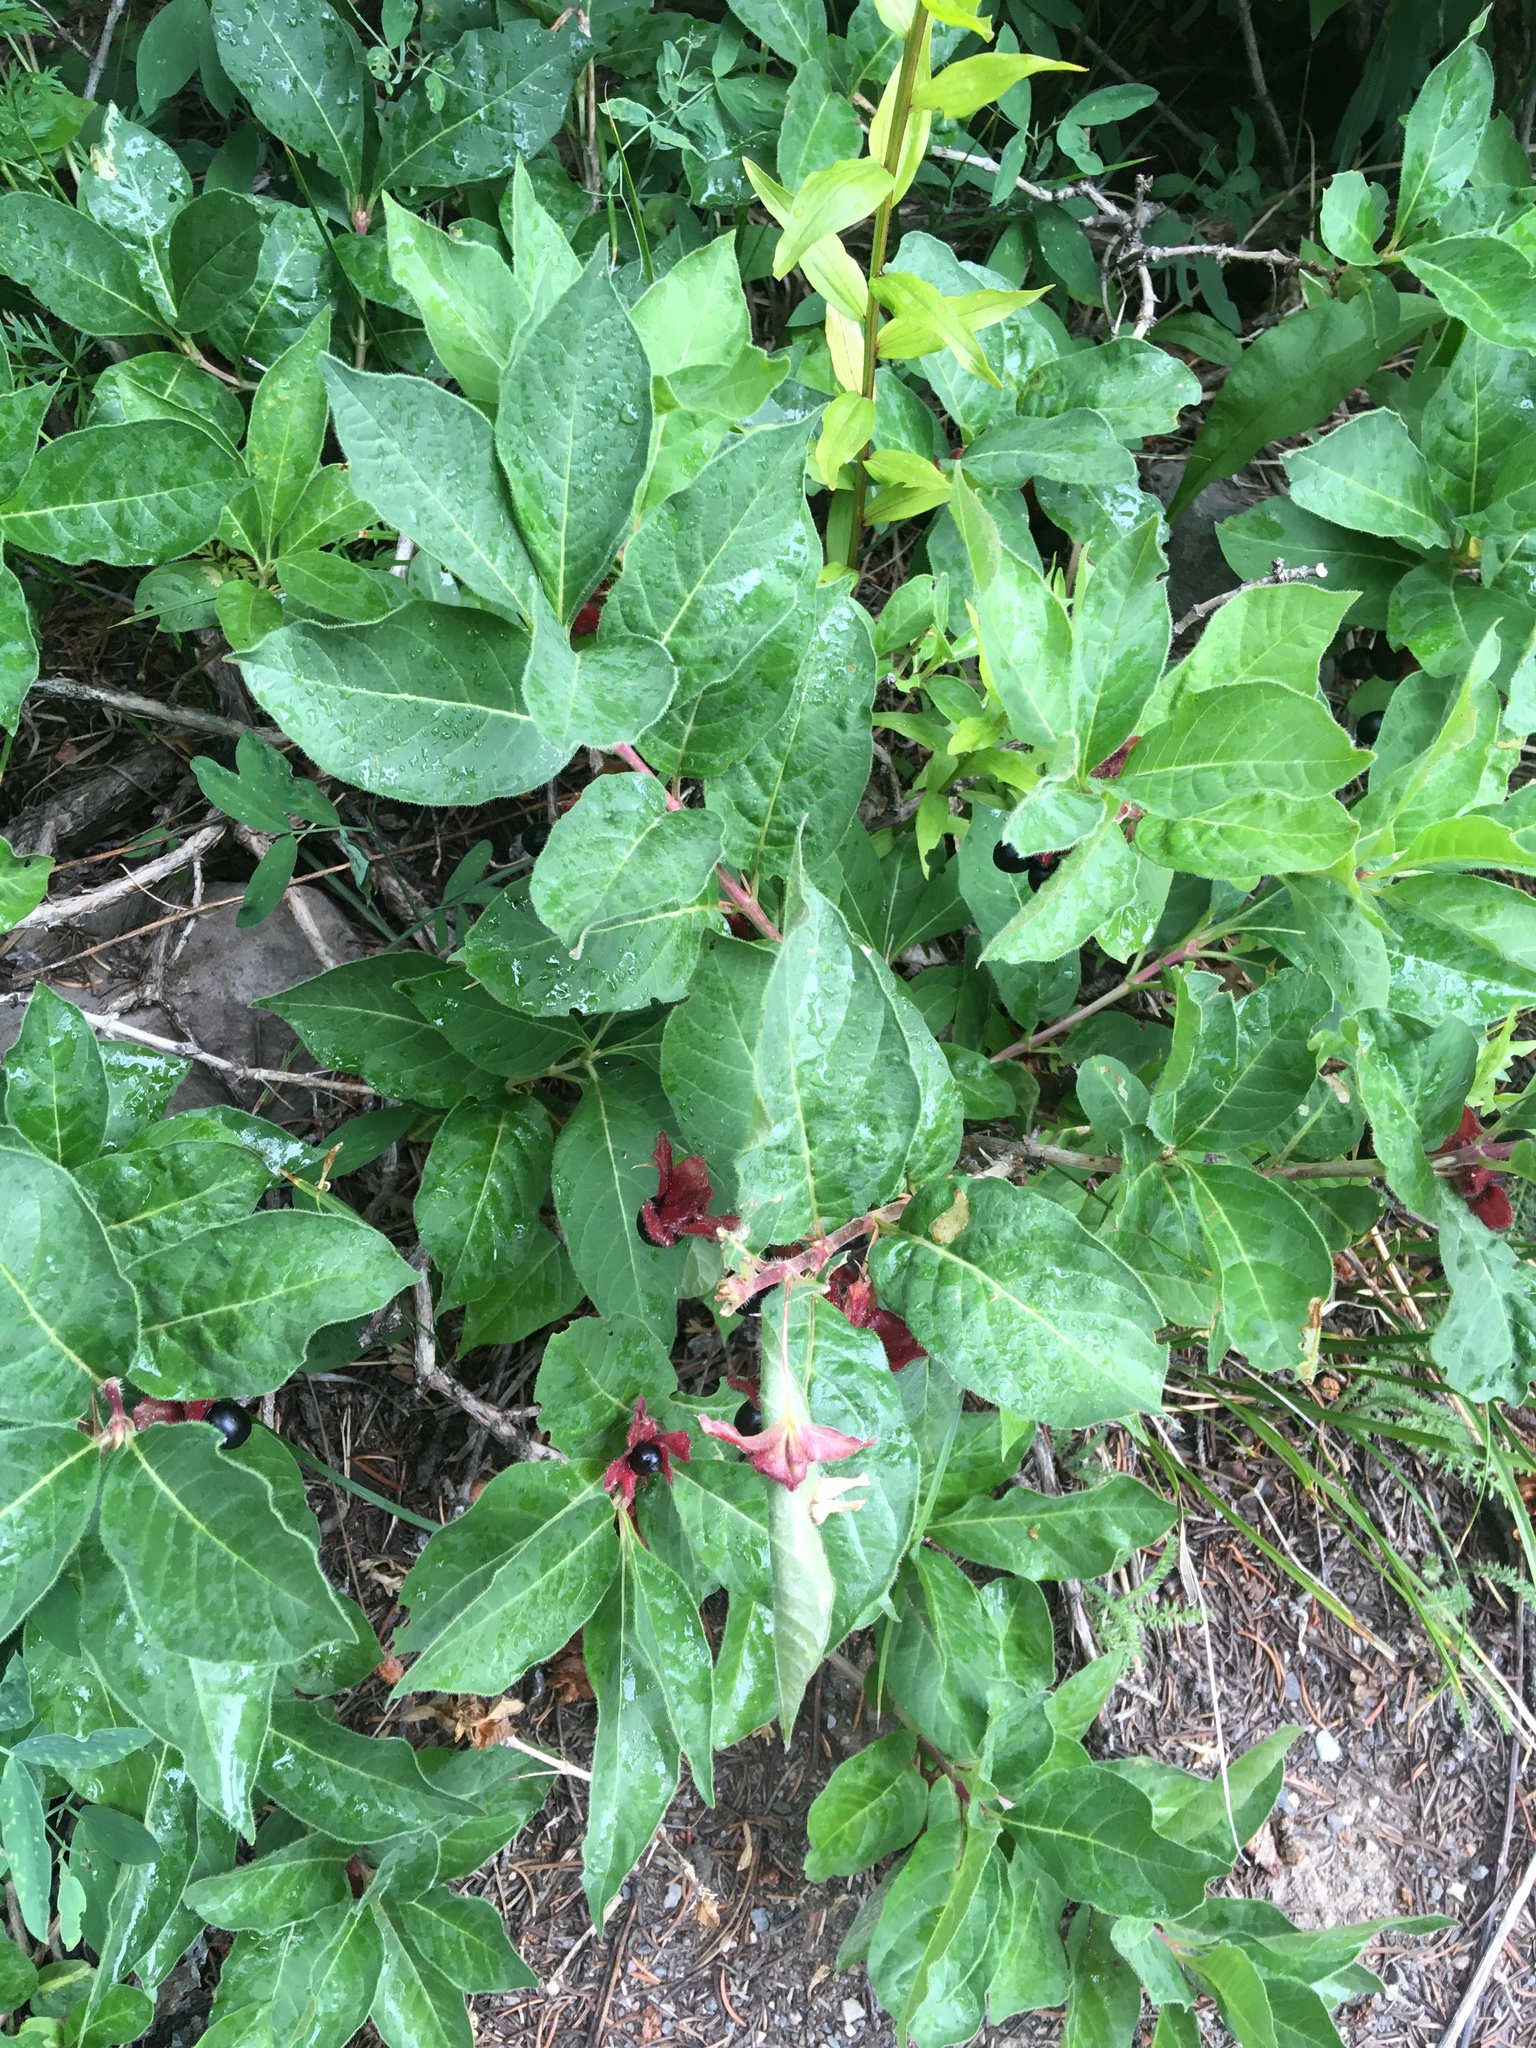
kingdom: Plantae
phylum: Tracheophyta
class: Magnoliopsida
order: Dipsacales
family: Caprifoliaceae
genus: Lonicera
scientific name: Lonicera involucrata
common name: Californian honeysuckle
